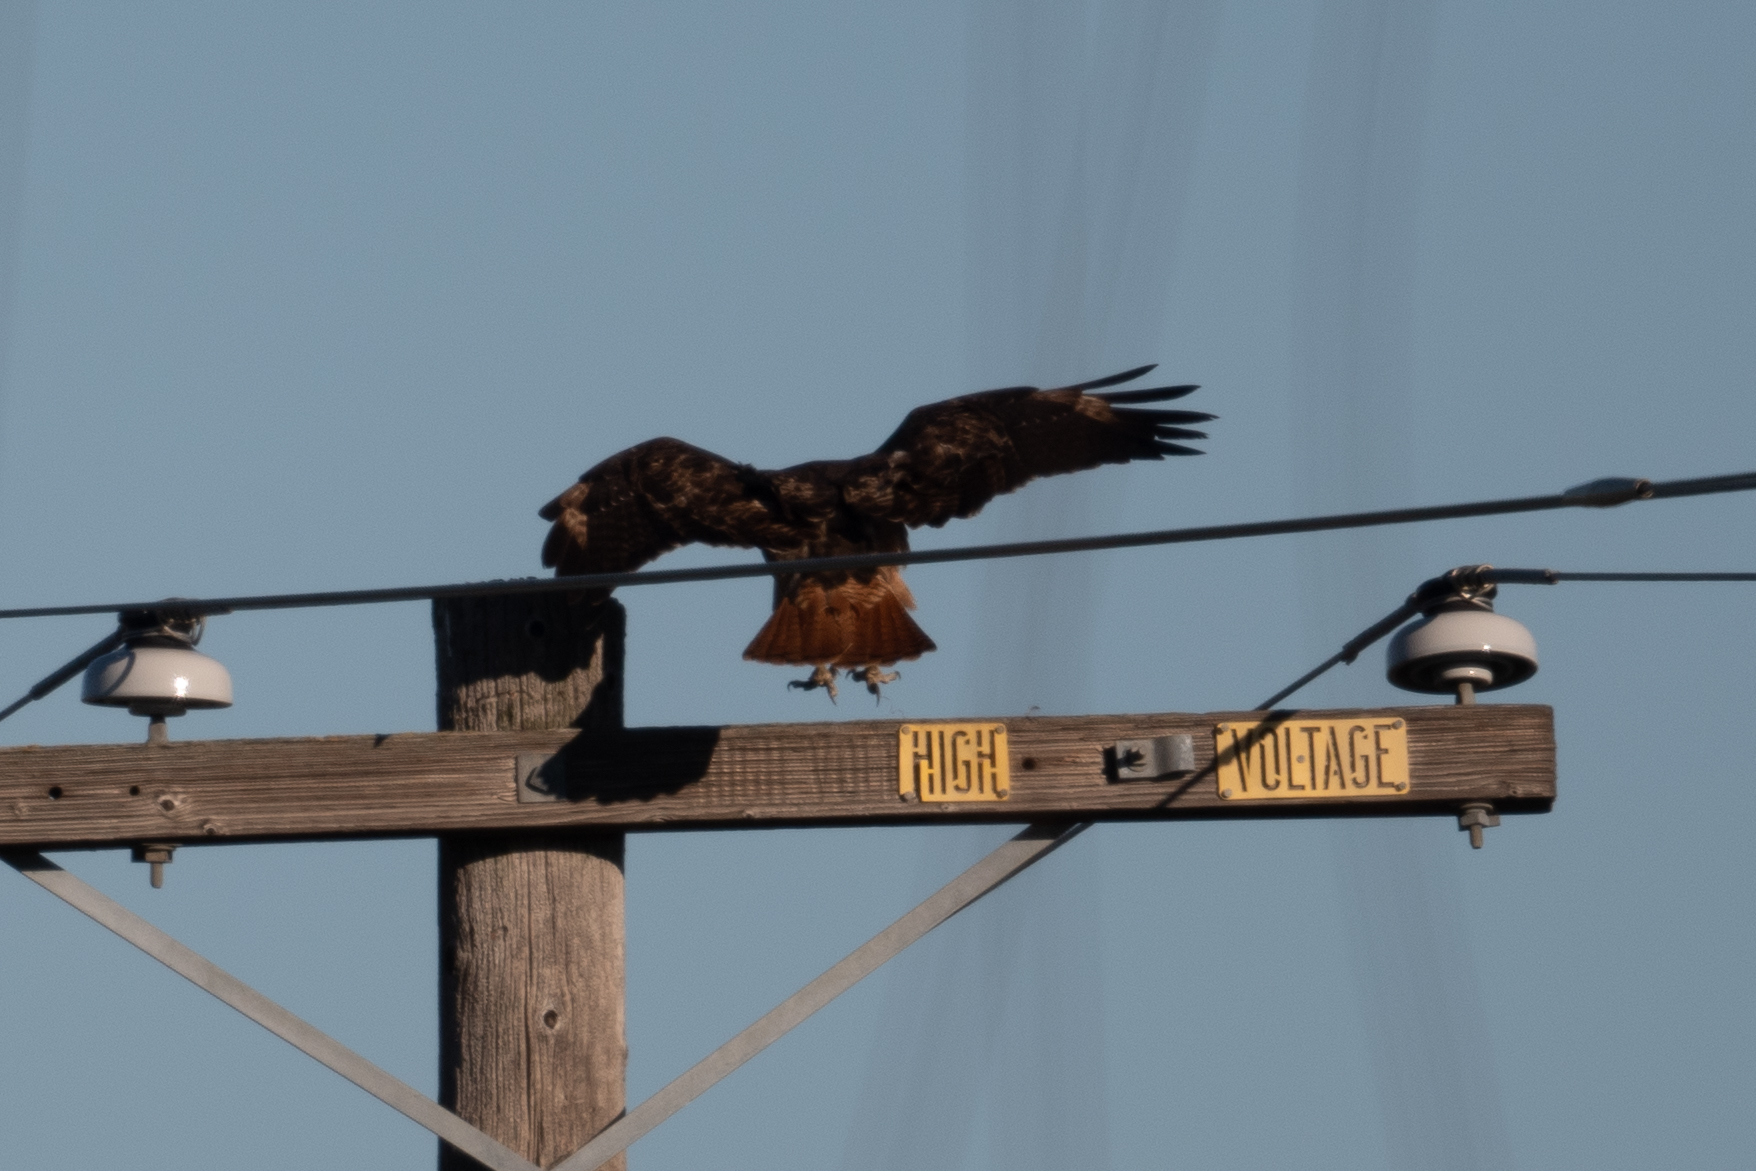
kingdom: Animalia
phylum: Chordata
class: Aves
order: Accipitriformes
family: Accipitridae
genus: Buteo
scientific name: Buteo jamaicensis
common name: Red-tailed hawk
